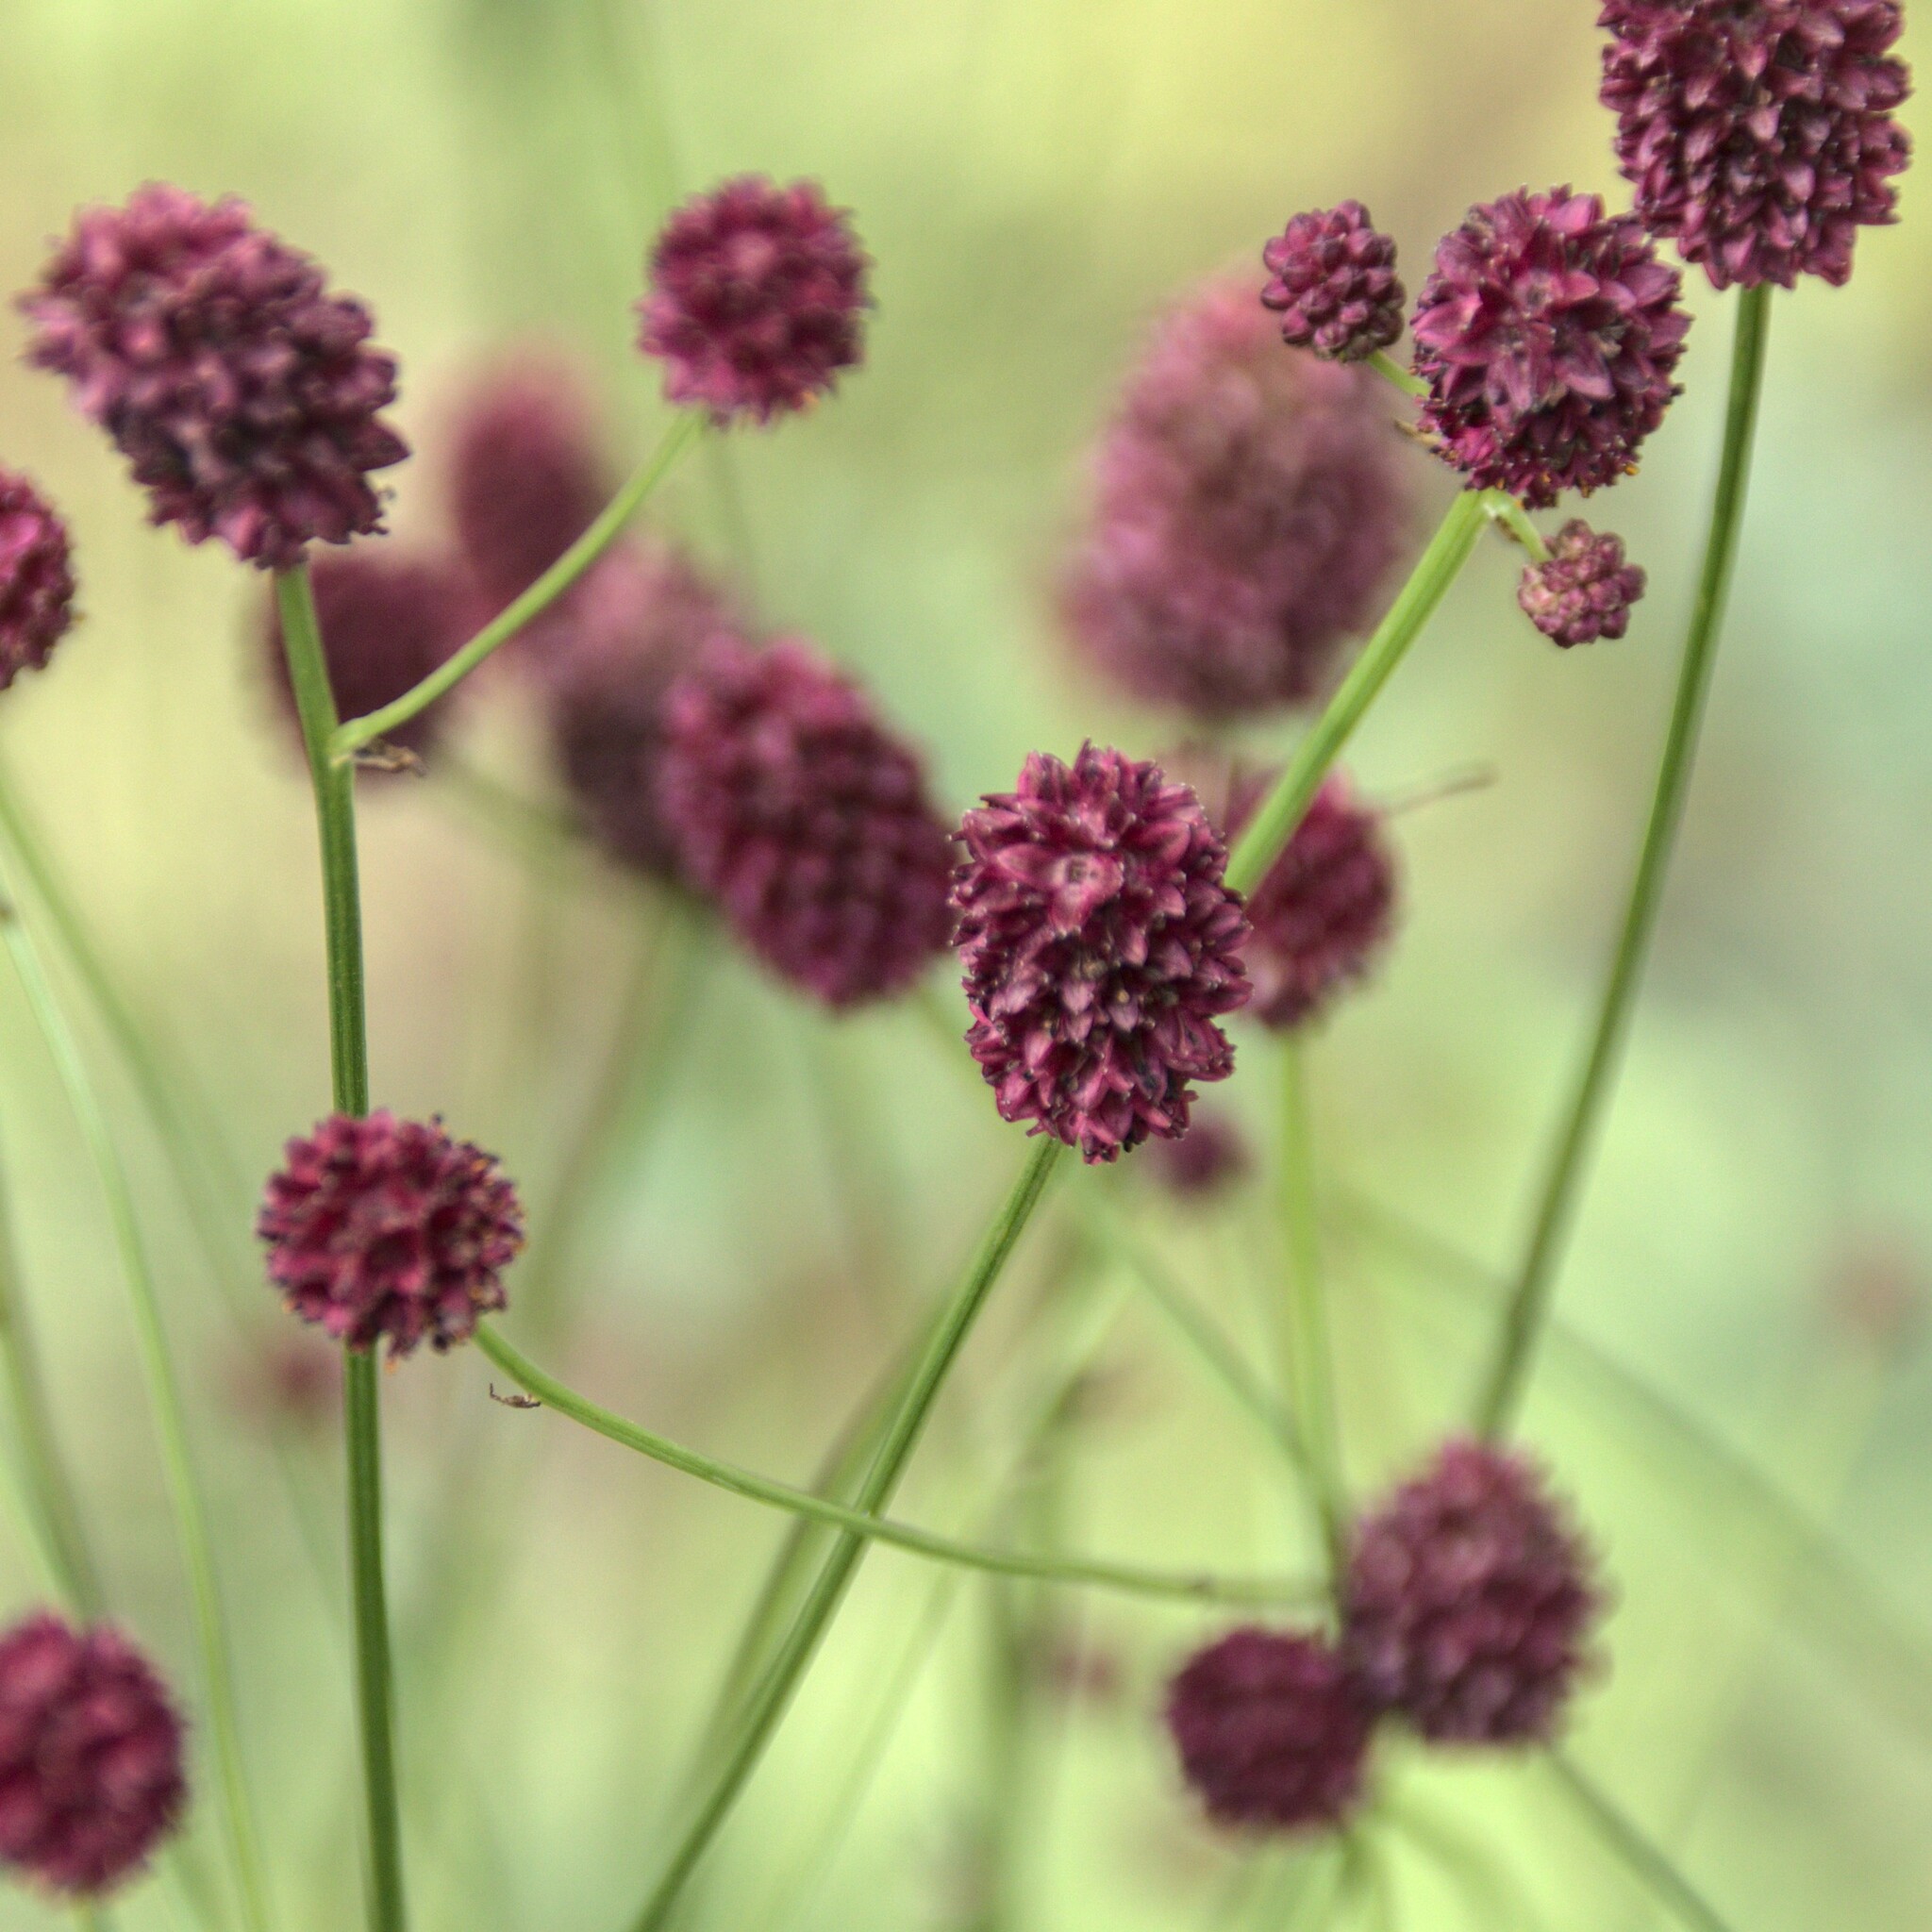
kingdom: Plantae
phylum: Tracheophyta
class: Magnoliopsida
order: Rosales
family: Rosaceae
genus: Sanguisorba
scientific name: Sanguisorba officinalis
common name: Great burnet
